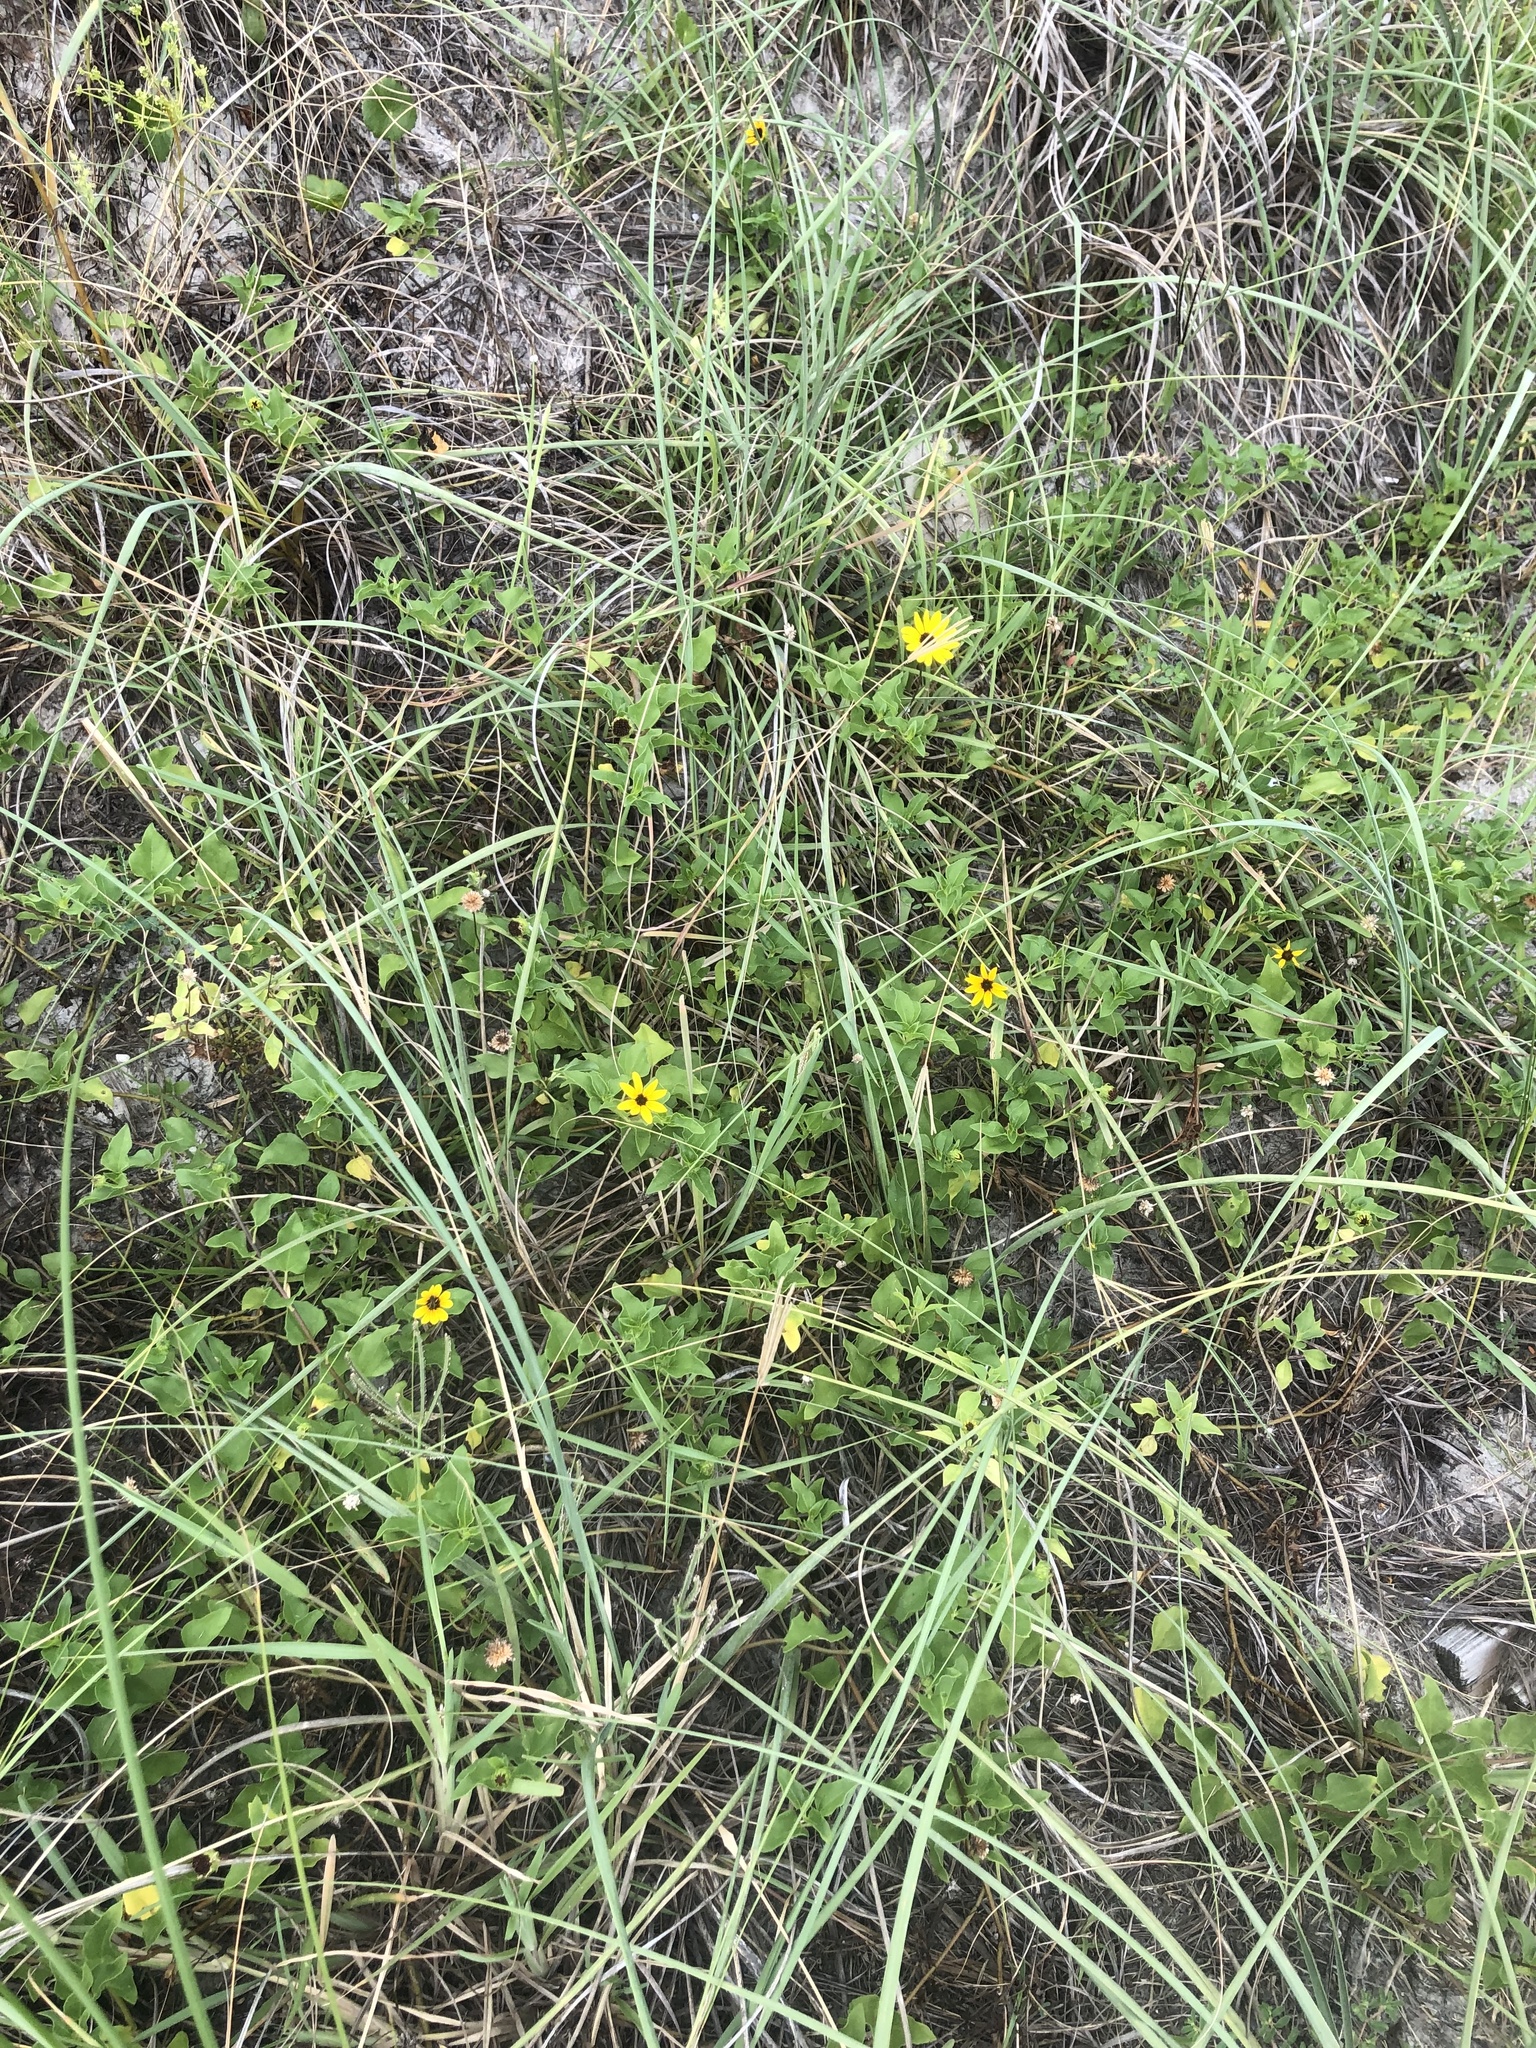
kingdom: Plantae
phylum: Tracheophyta
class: Magnoliopsida
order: Asterales
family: Asteraceae
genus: Helianthus
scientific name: Helianthus debilis
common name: Weak sunflower
